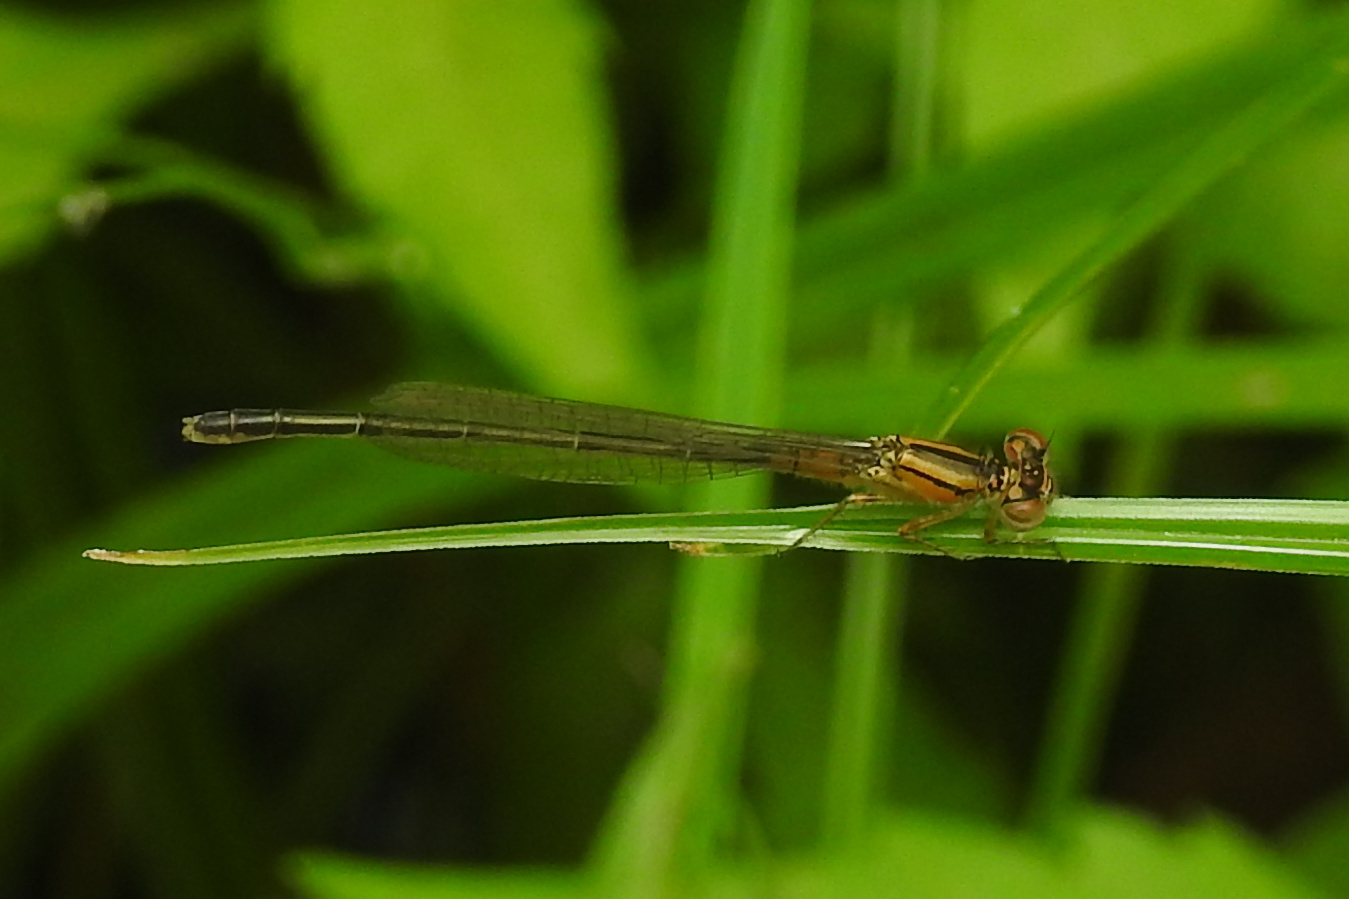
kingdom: Animalia
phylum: Arthropoda
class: Insecta
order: Odonata
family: Coenagrionidae
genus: Ischnura
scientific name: Ischnura verticalis
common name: Eastern forktail
